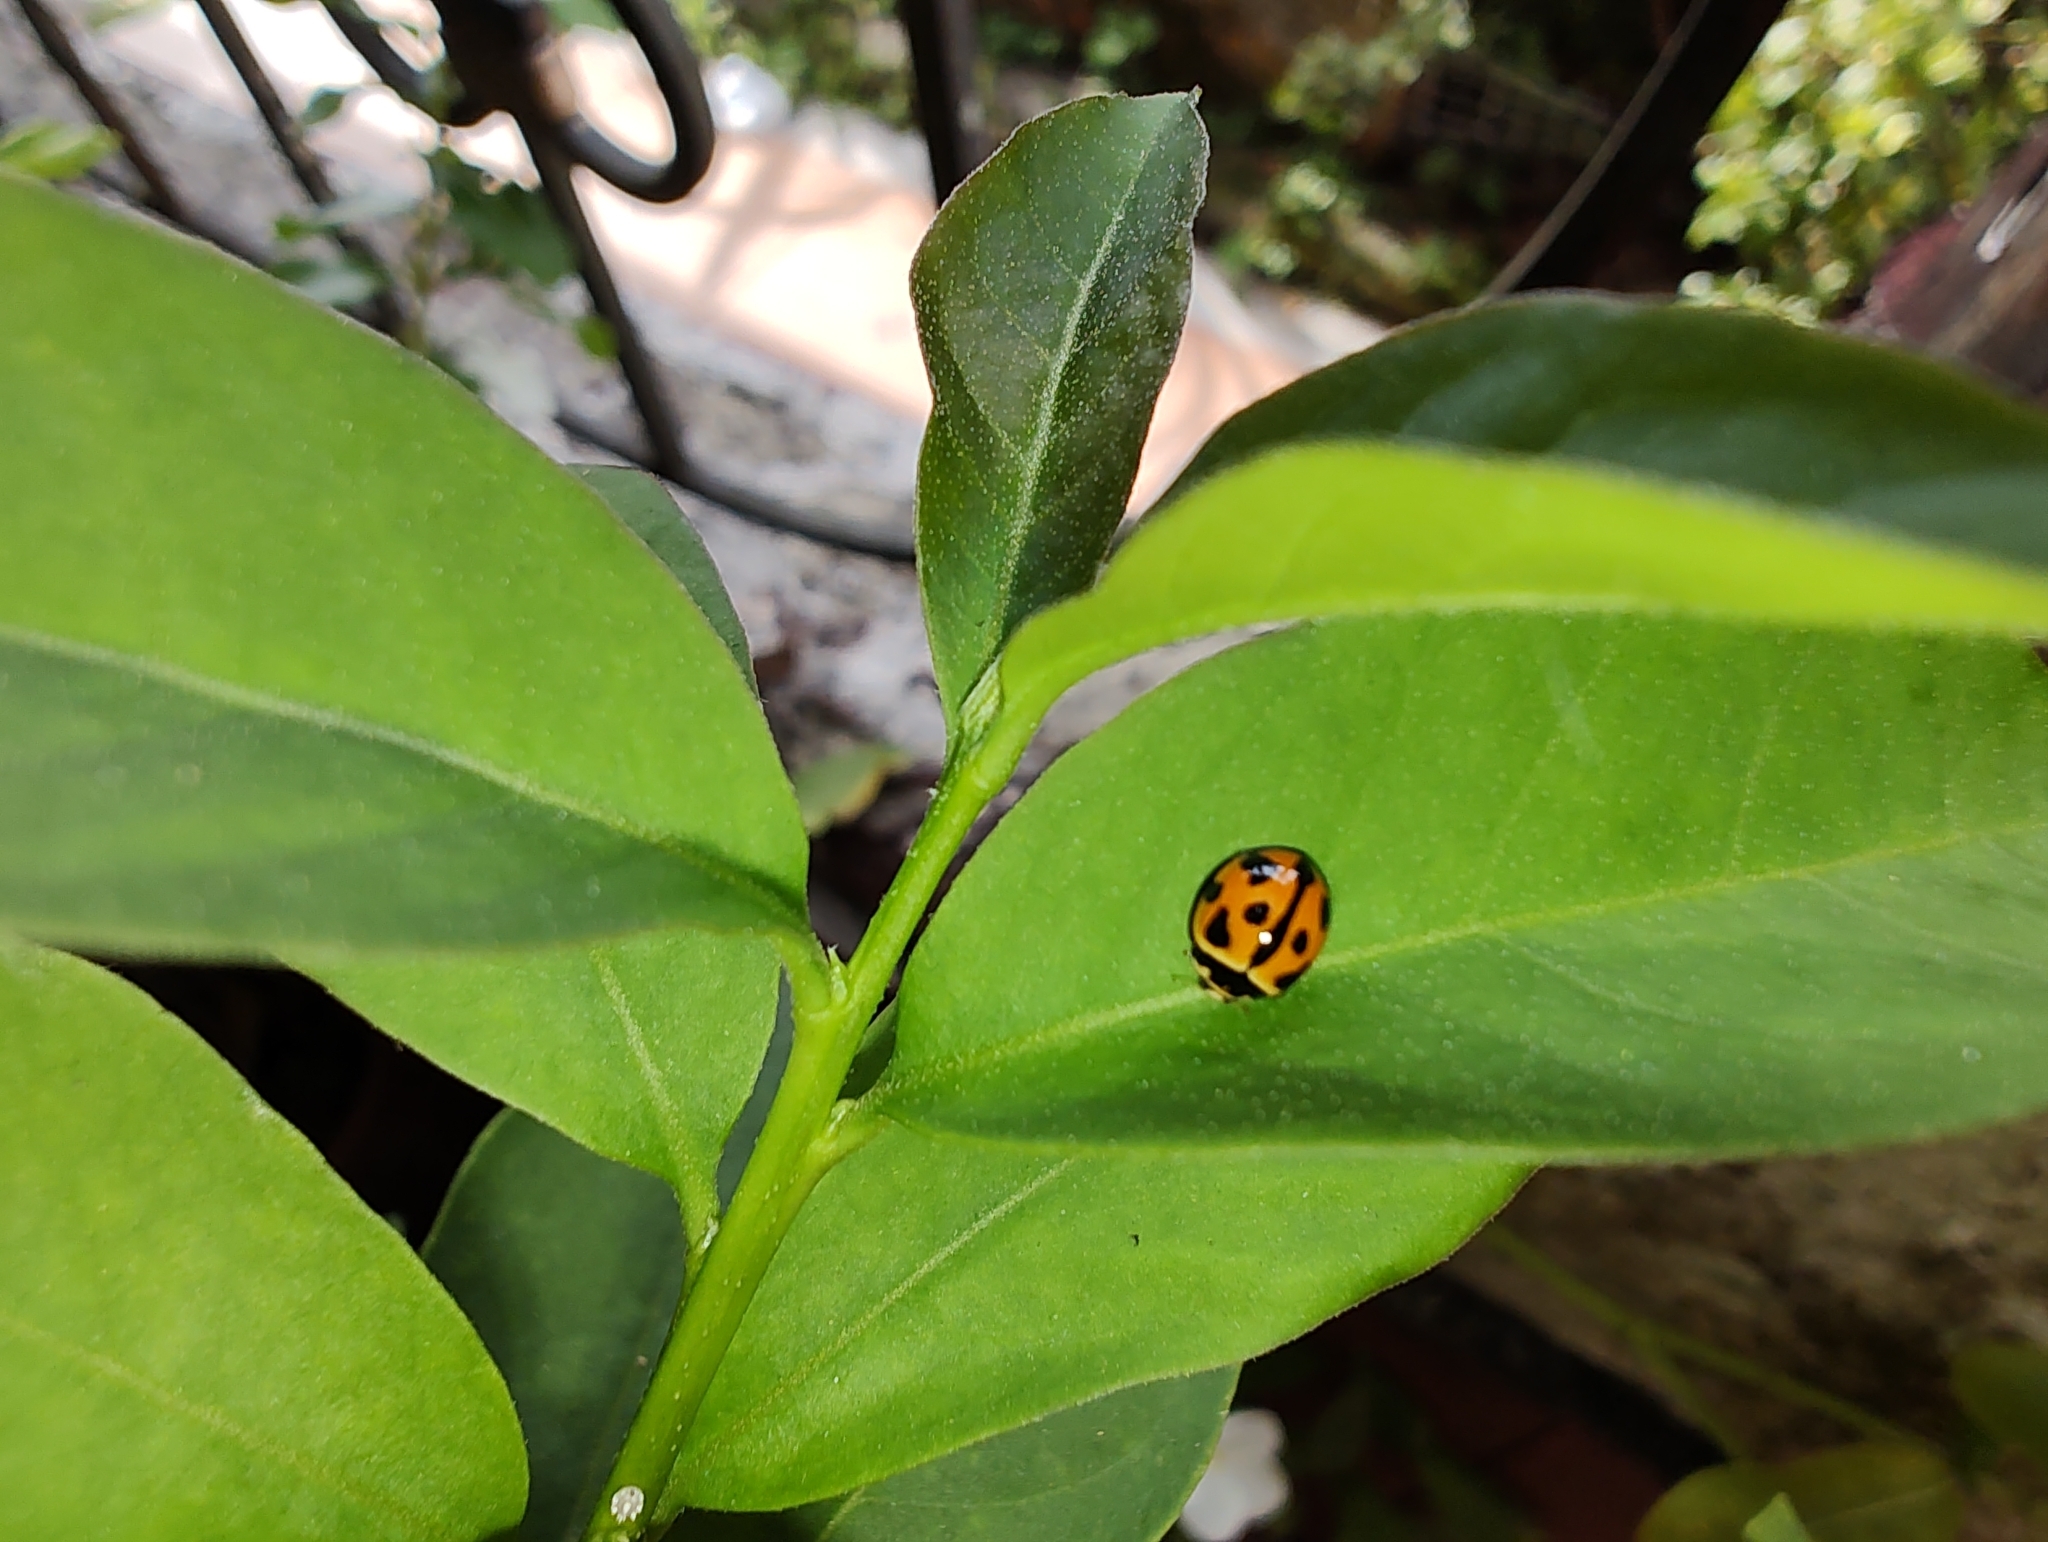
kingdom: Animalia
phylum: Arthropoda
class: Insecta
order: Coleoptera
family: Coccinellidae
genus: Coelophora
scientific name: Coelophora inaequalis
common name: Common australian lady beetle
